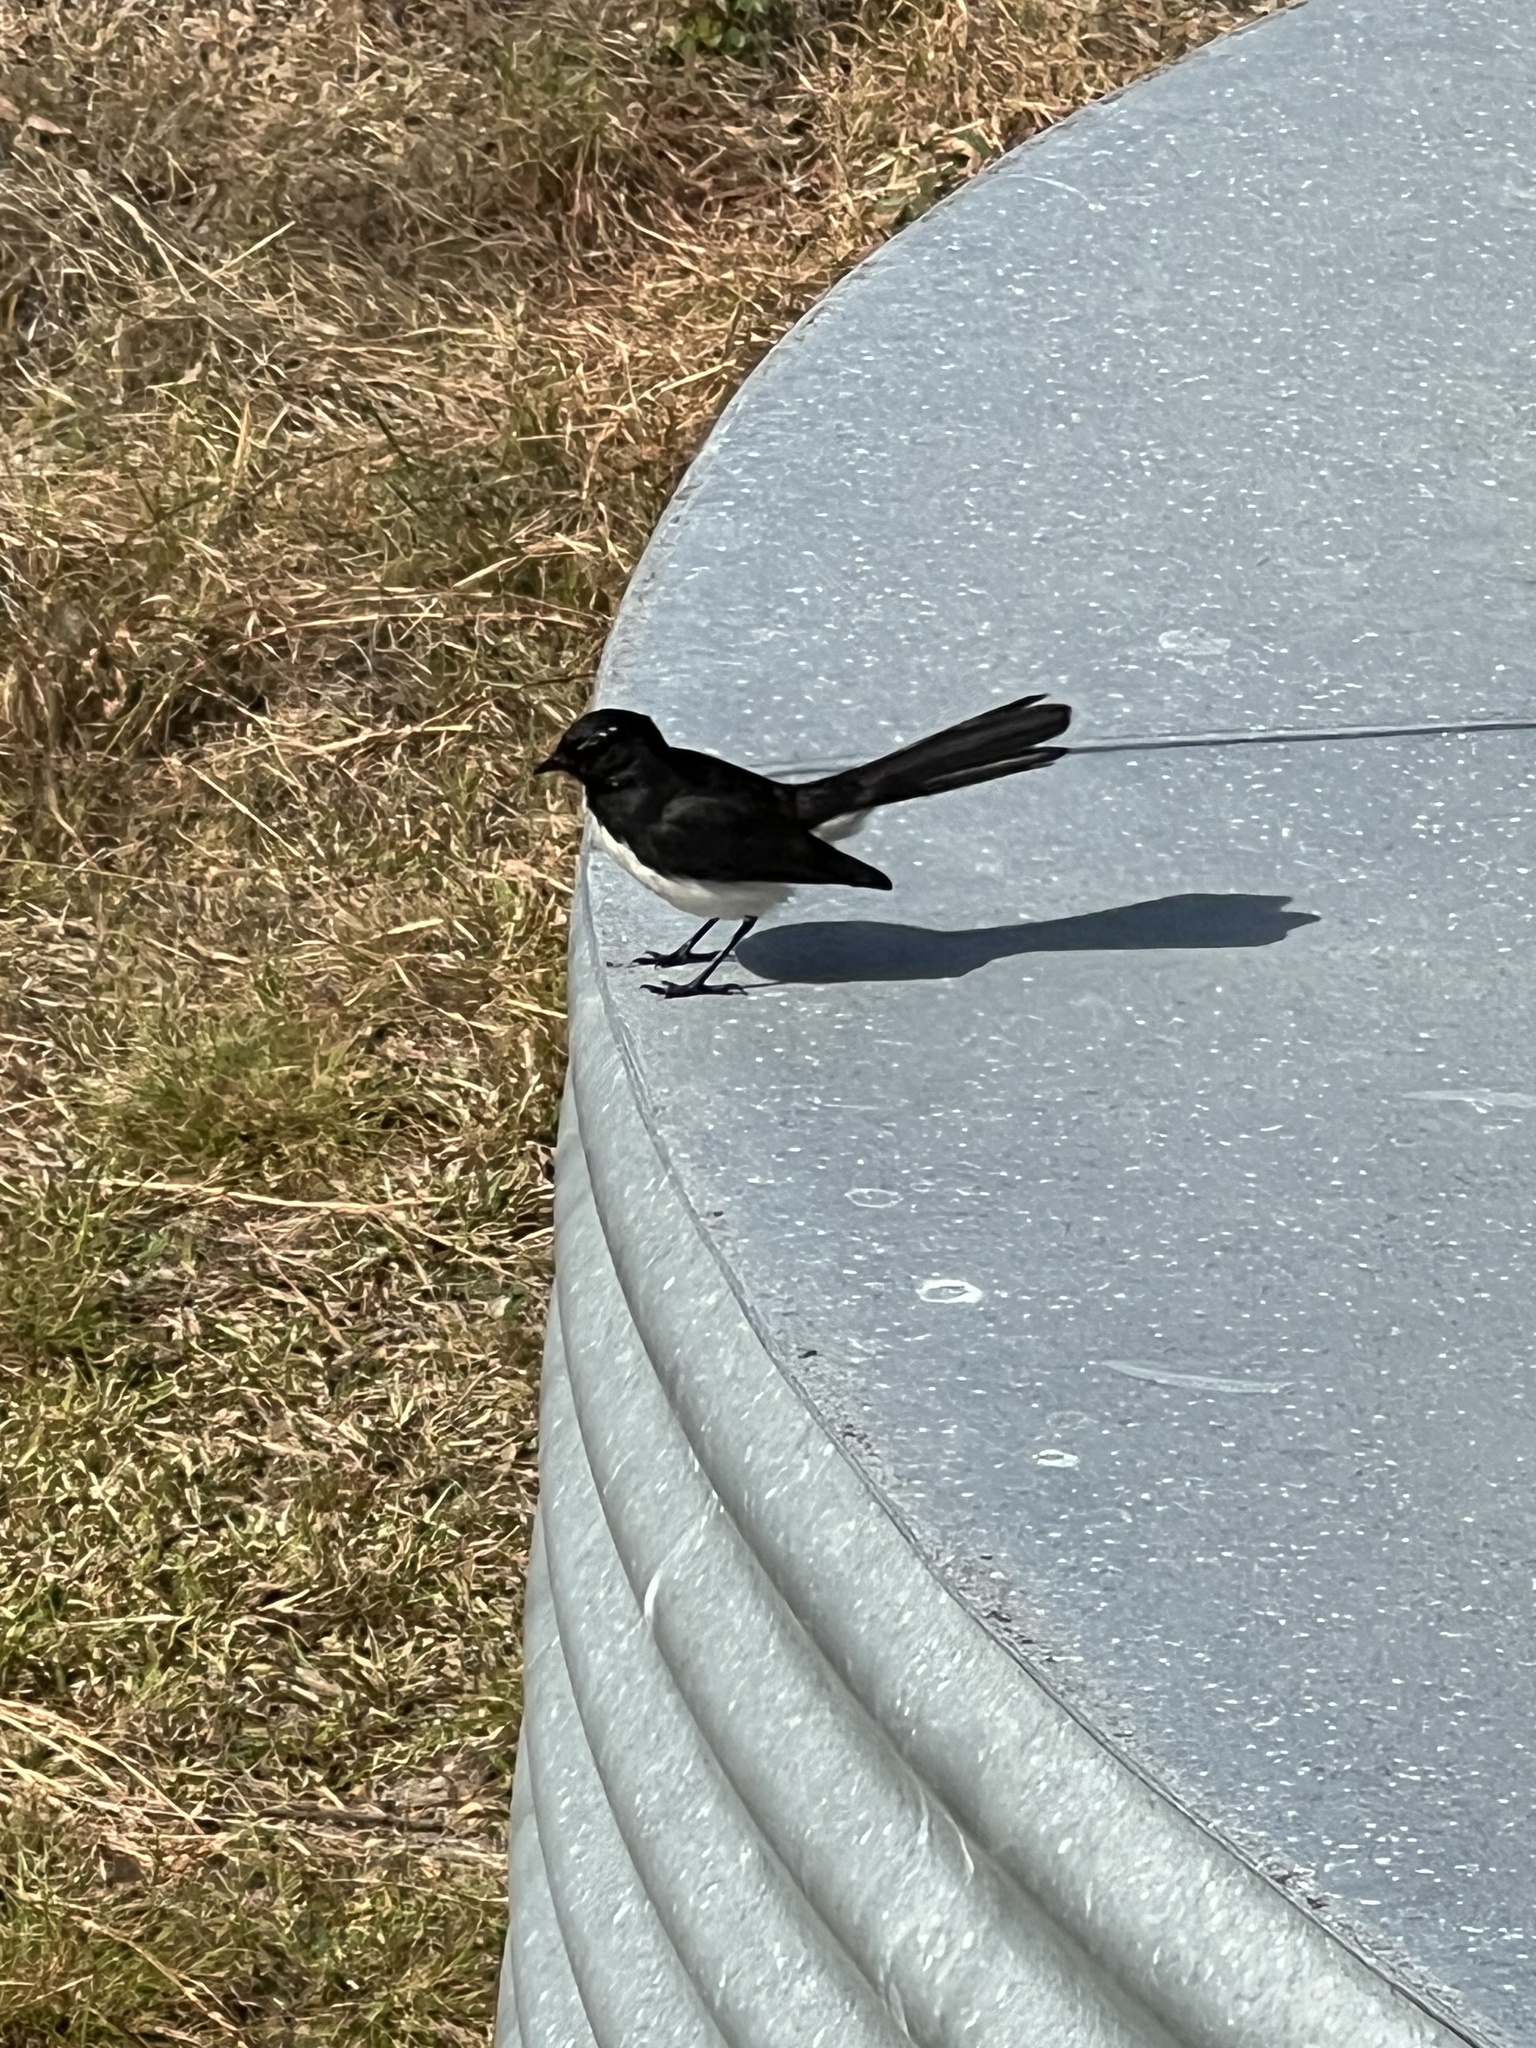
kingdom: Animalia
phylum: Chordata
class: Aves
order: Passeriformes
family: Rhipiduridae
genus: Rhipidura
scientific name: Rhipidura leucophrys
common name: Willie wagtail
